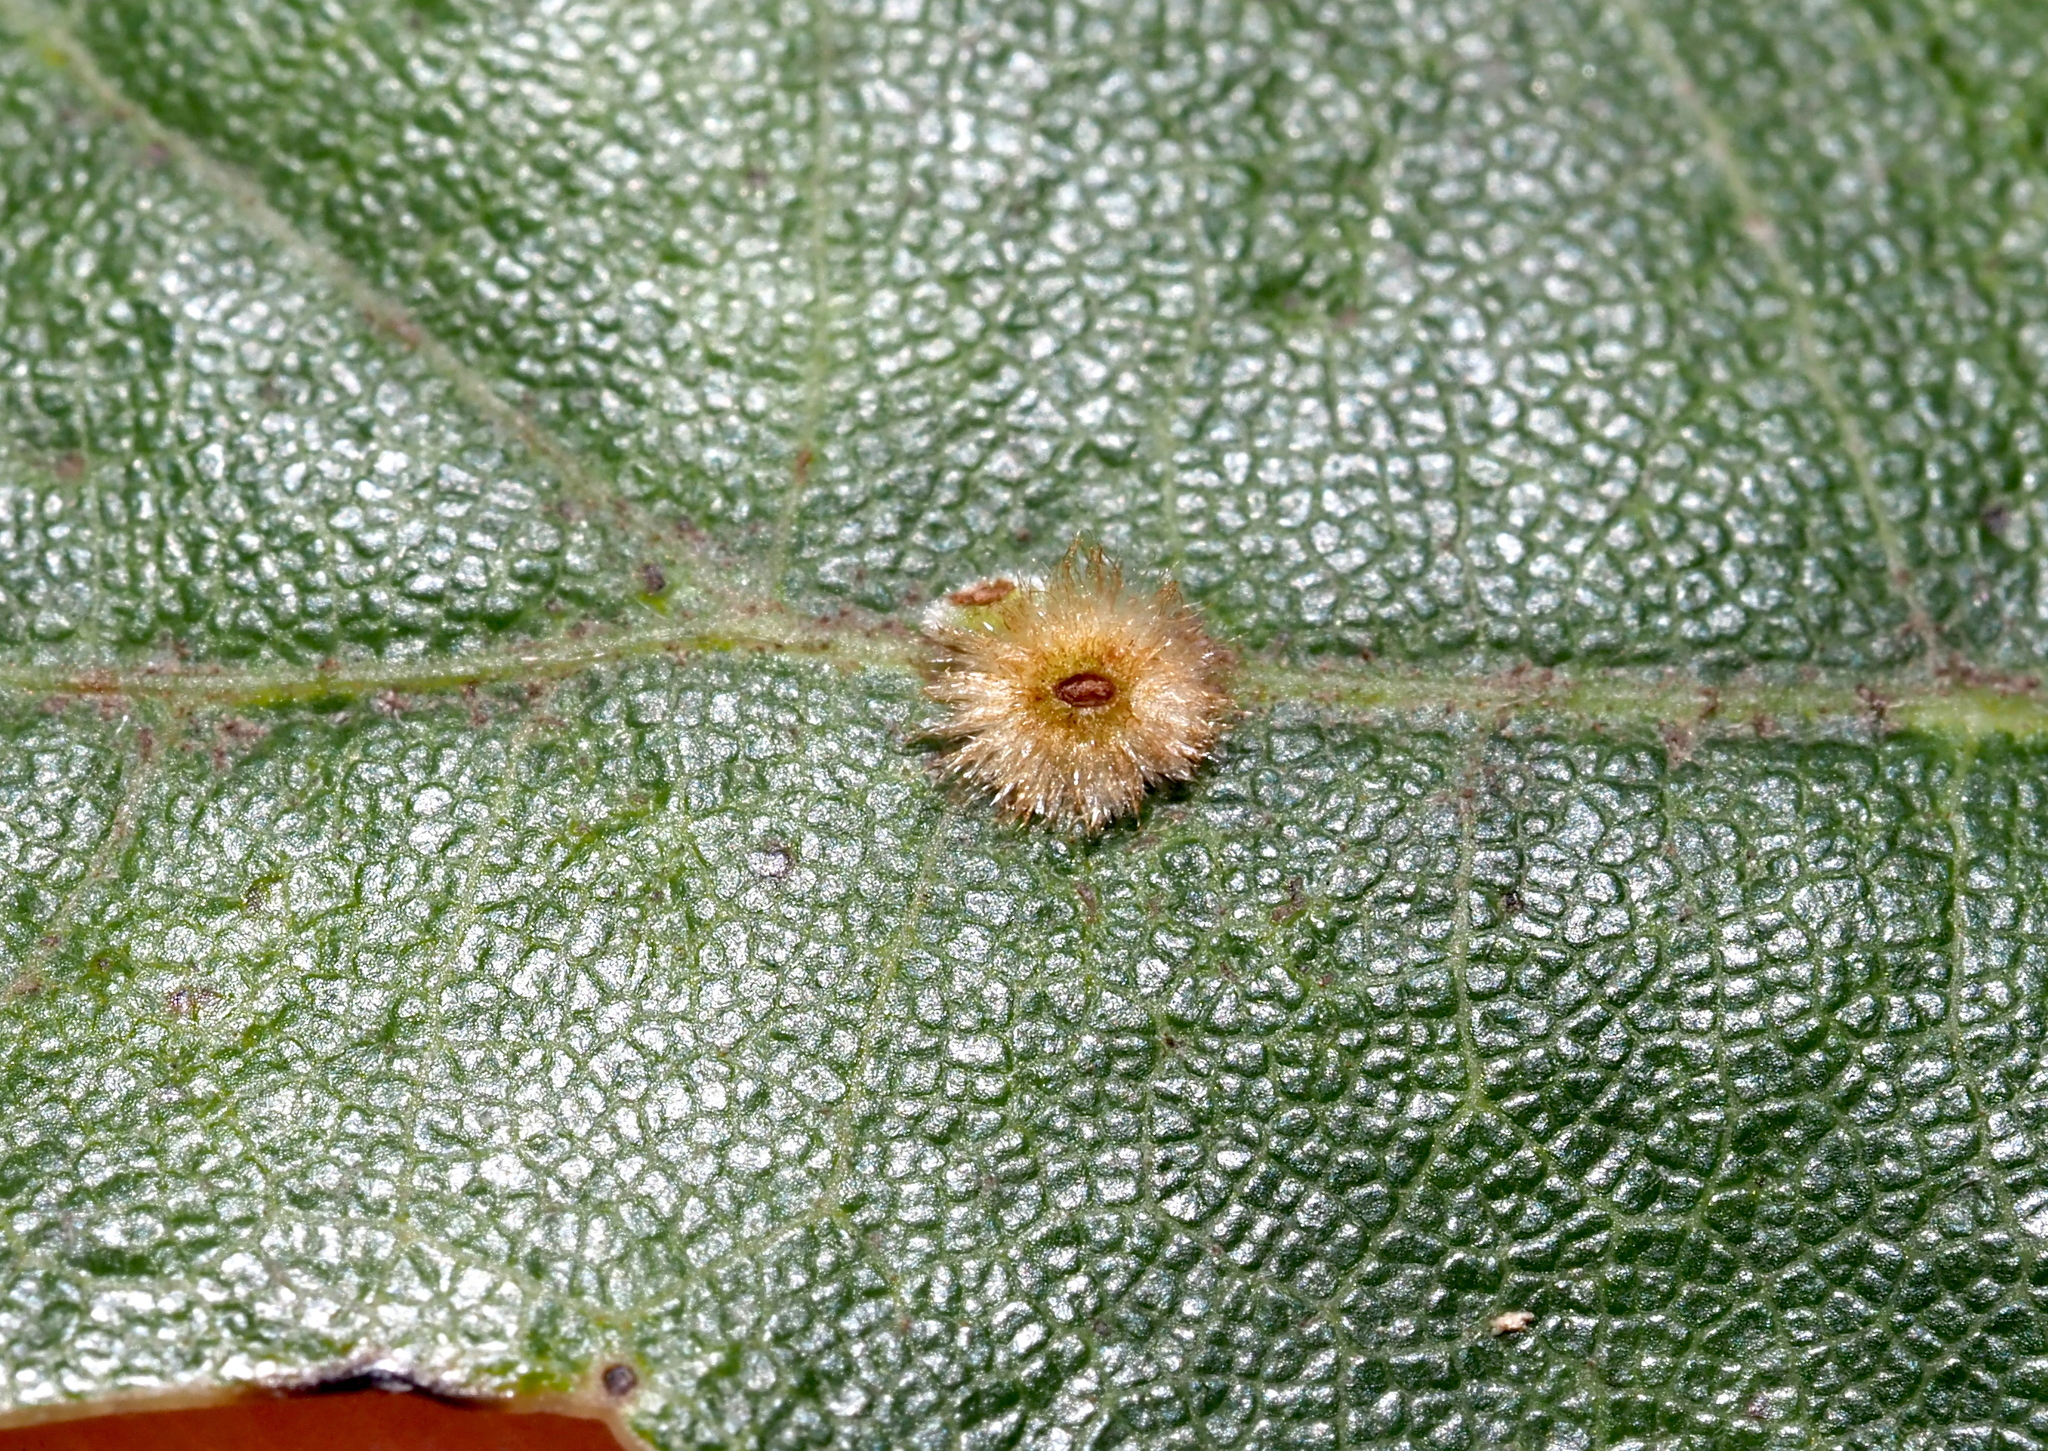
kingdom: Animalia
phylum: Arthropoda
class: Insecta
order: Hymenoptera
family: Cynipidae
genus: Callirhytis
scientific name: Callirhytis
